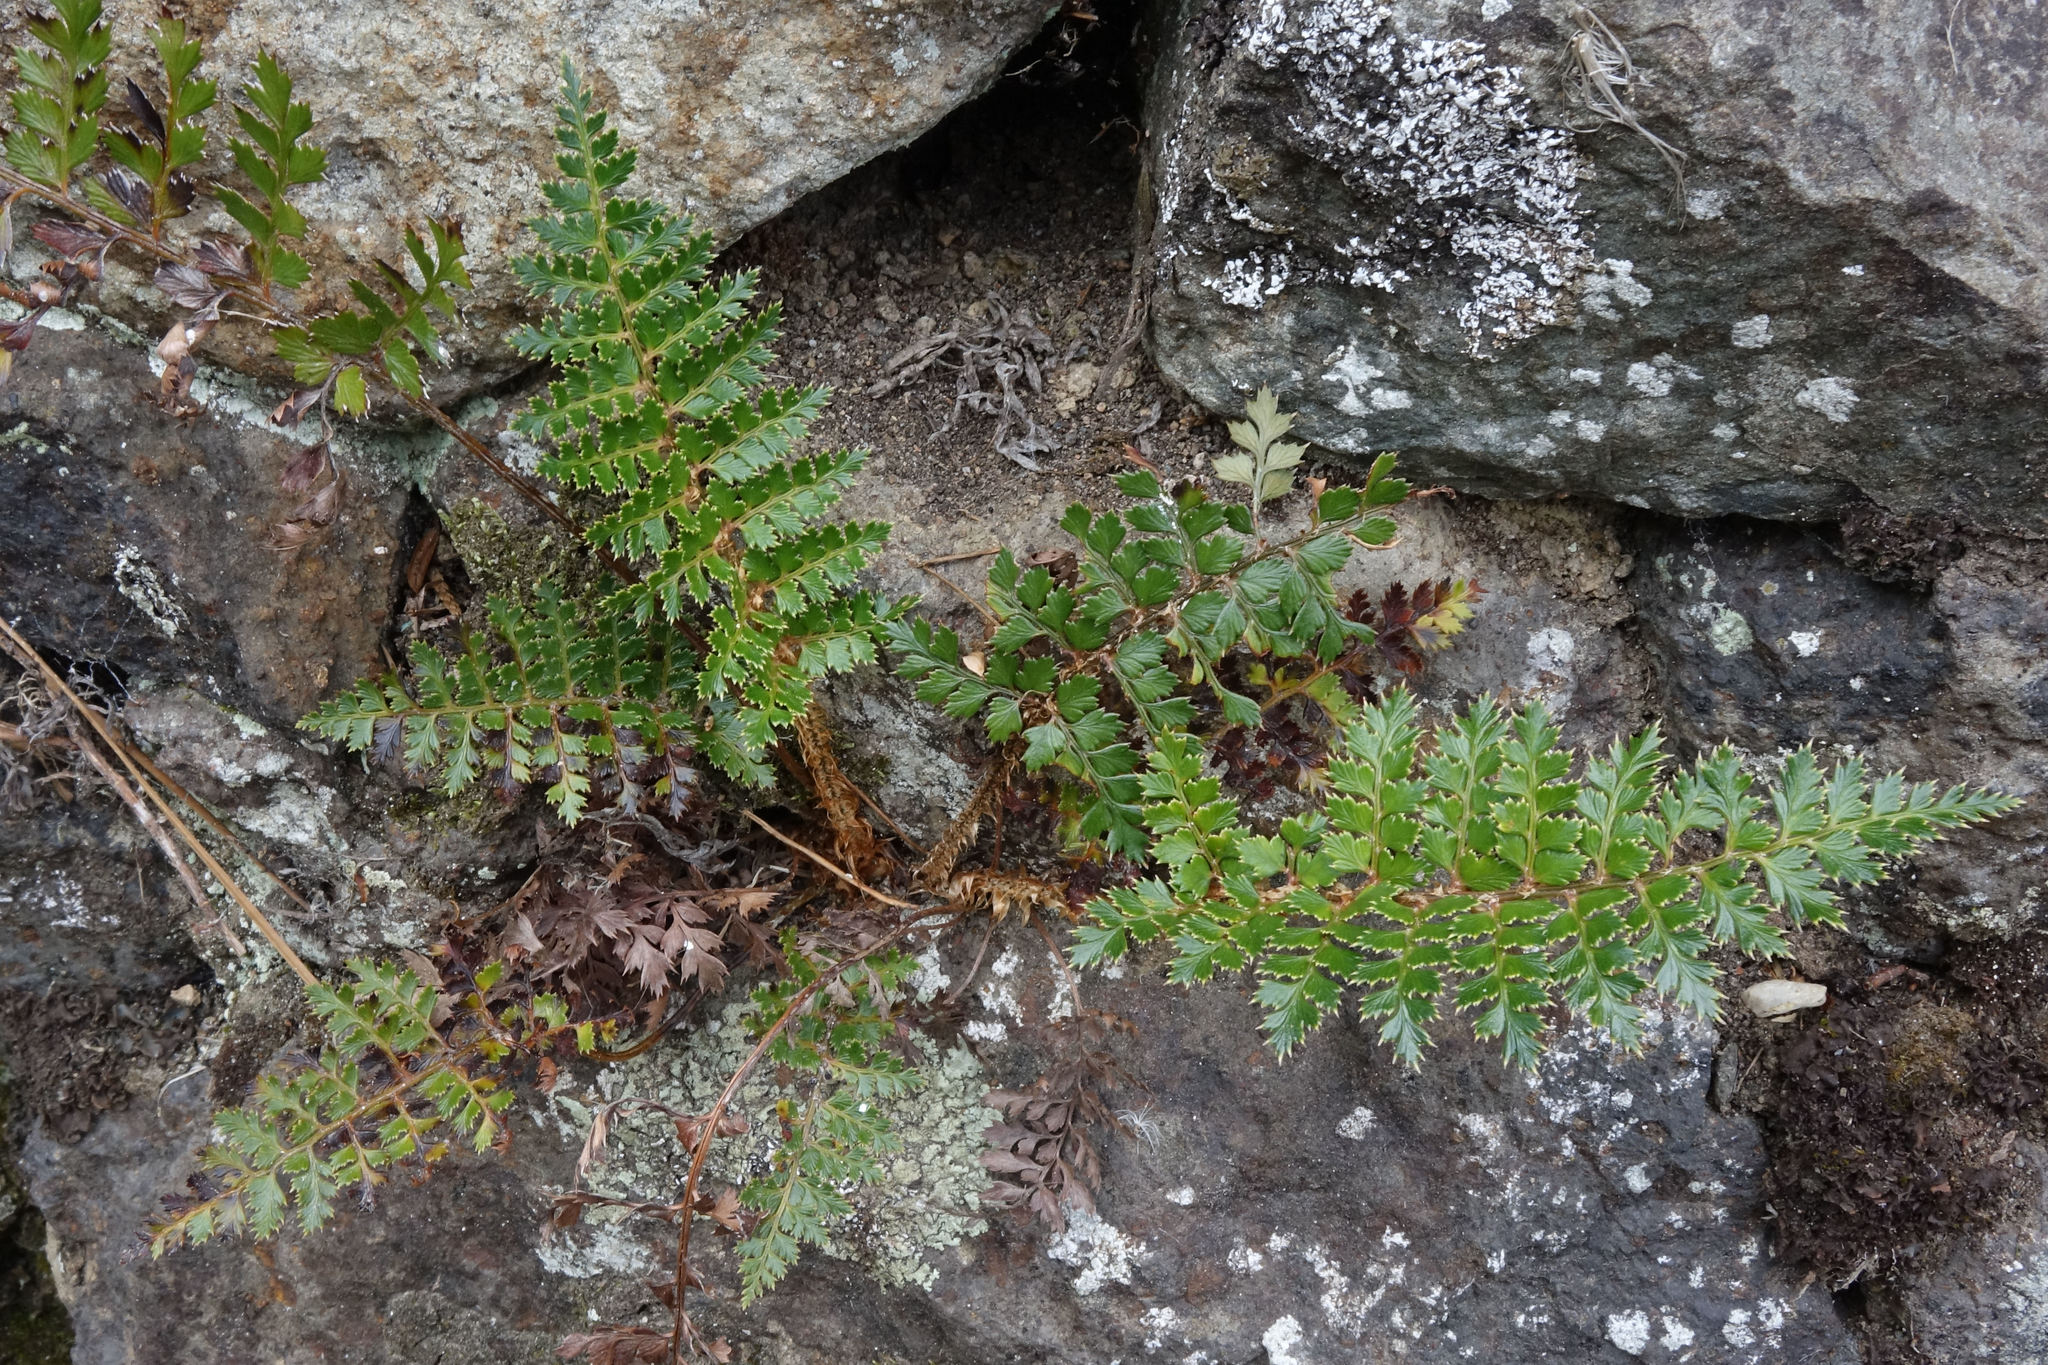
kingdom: Plantae
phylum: Tracheophyta
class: Polypodiopsida
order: Polypodiales
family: Dryopteridaceae
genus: Polystichum
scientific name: Polystichum vestitum
